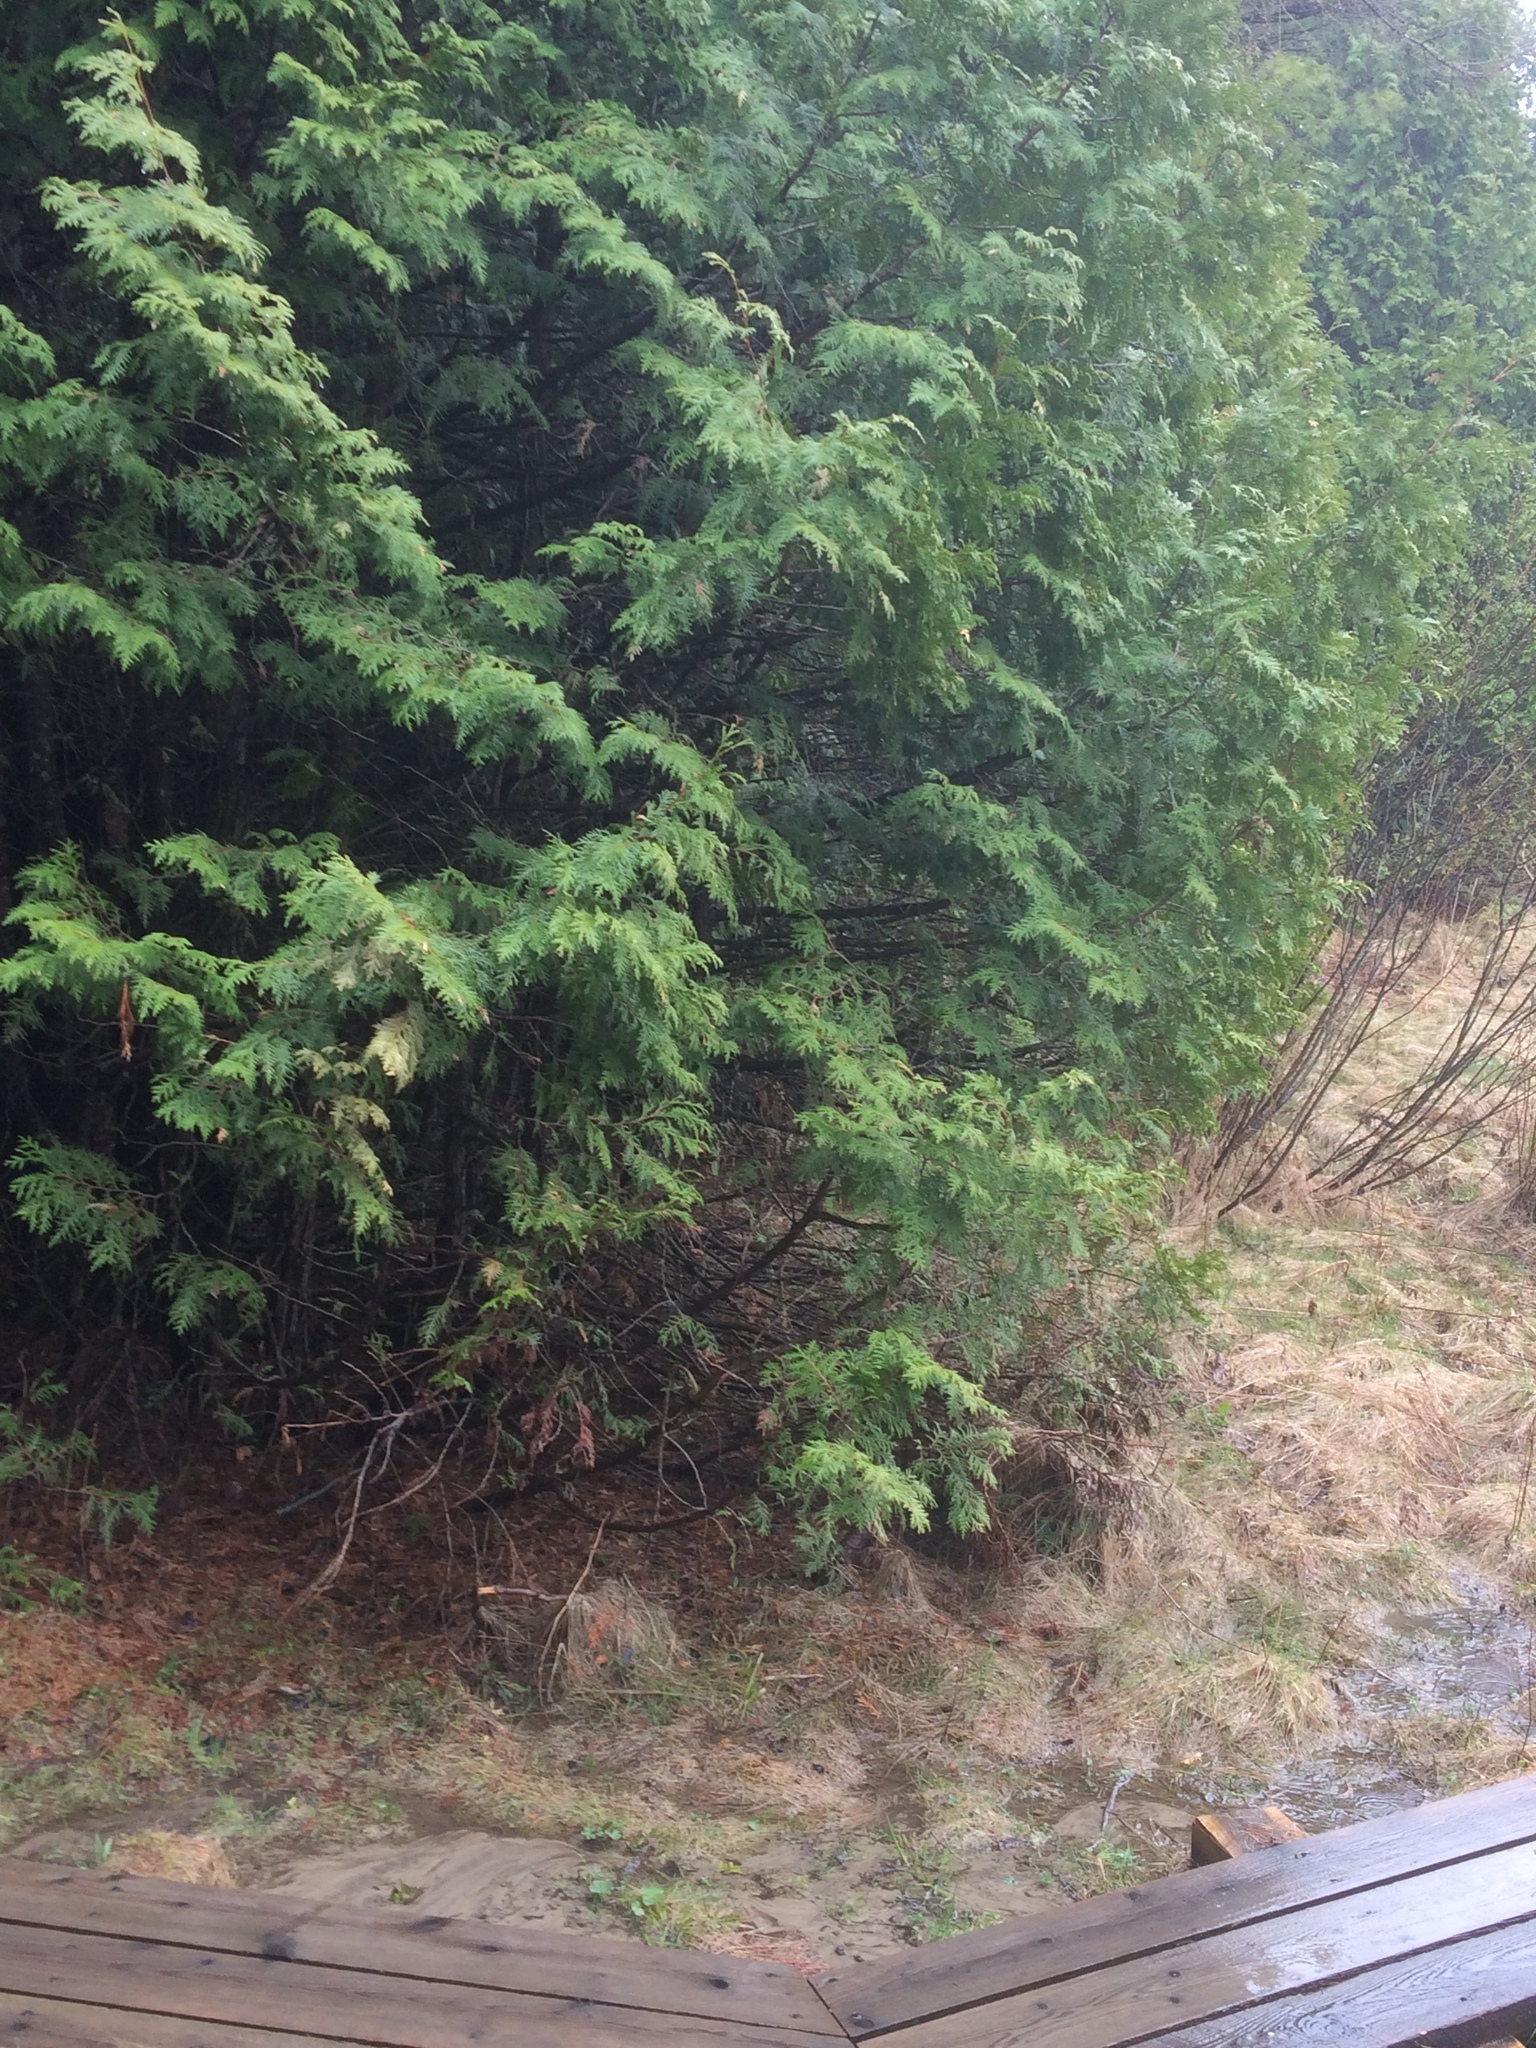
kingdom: Plantae
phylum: Tracheophyta
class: Pinopsida
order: Pinales
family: Cupressaceae
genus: Thuja
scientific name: Thuja occidentalis
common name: Northern white-cedar
